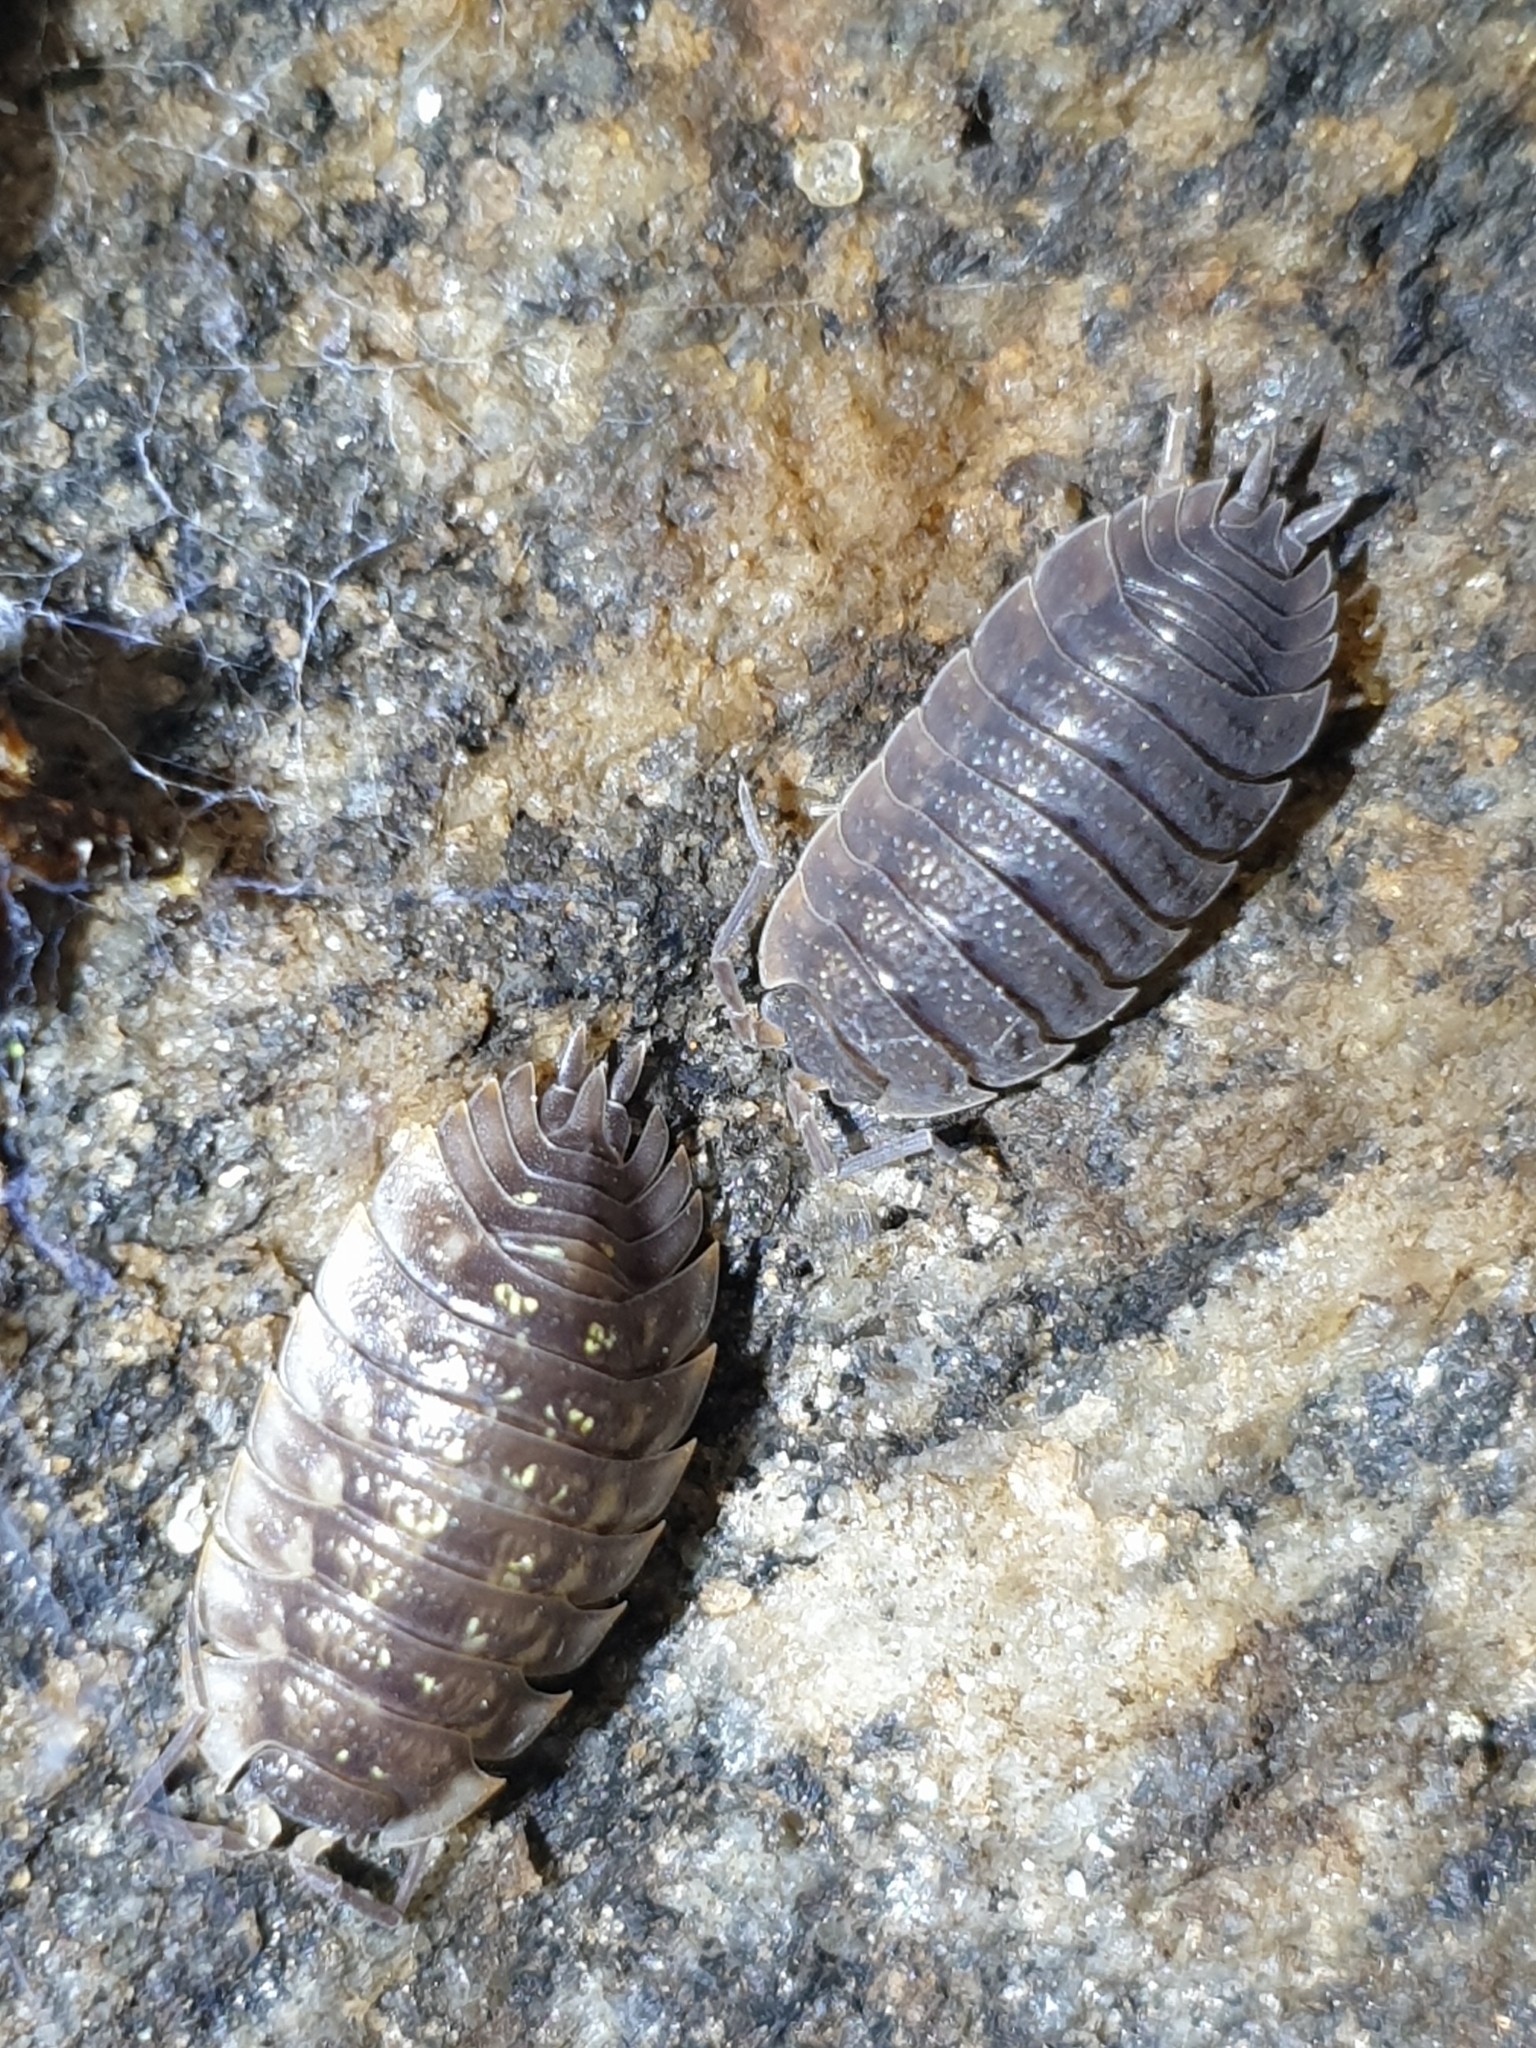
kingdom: Animalia
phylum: Arthropoda
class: Malacostraca
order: Isopoda
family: Oniscidae
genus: Oniscus
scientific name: Oniscus asellus
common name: Common shiny woodlouse
